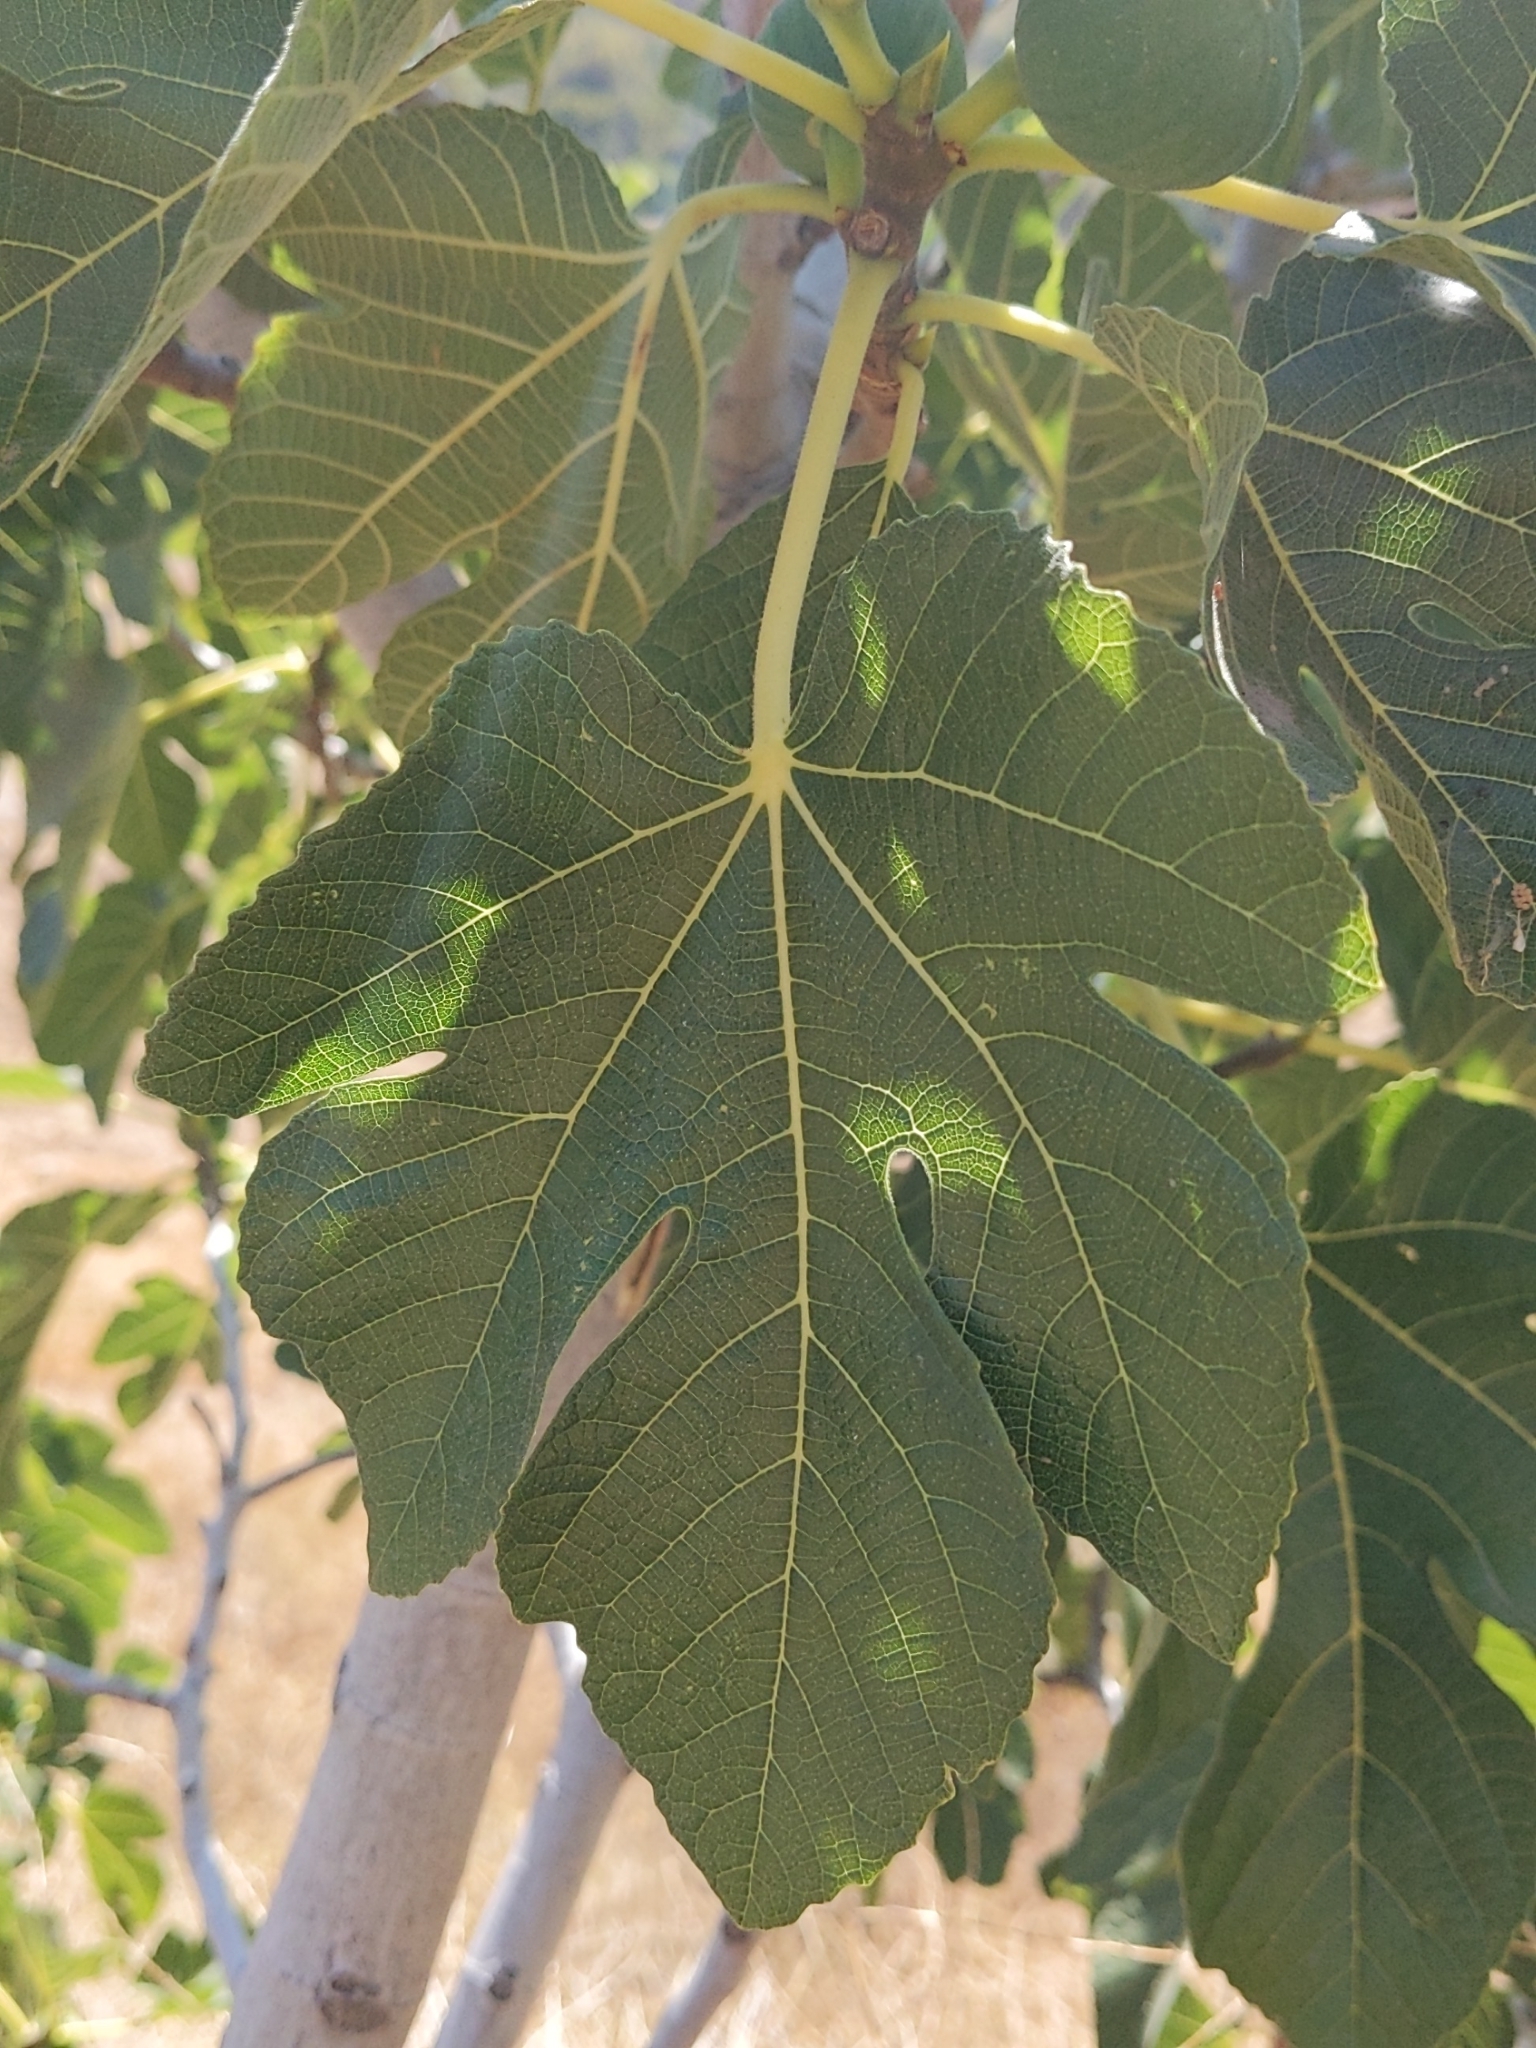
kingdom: Plantae
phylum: Tracheophyta
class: Magnoliopsida
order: Rosales
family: Moraceae
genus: Ficus
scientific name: Ficus carica
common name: Fig
